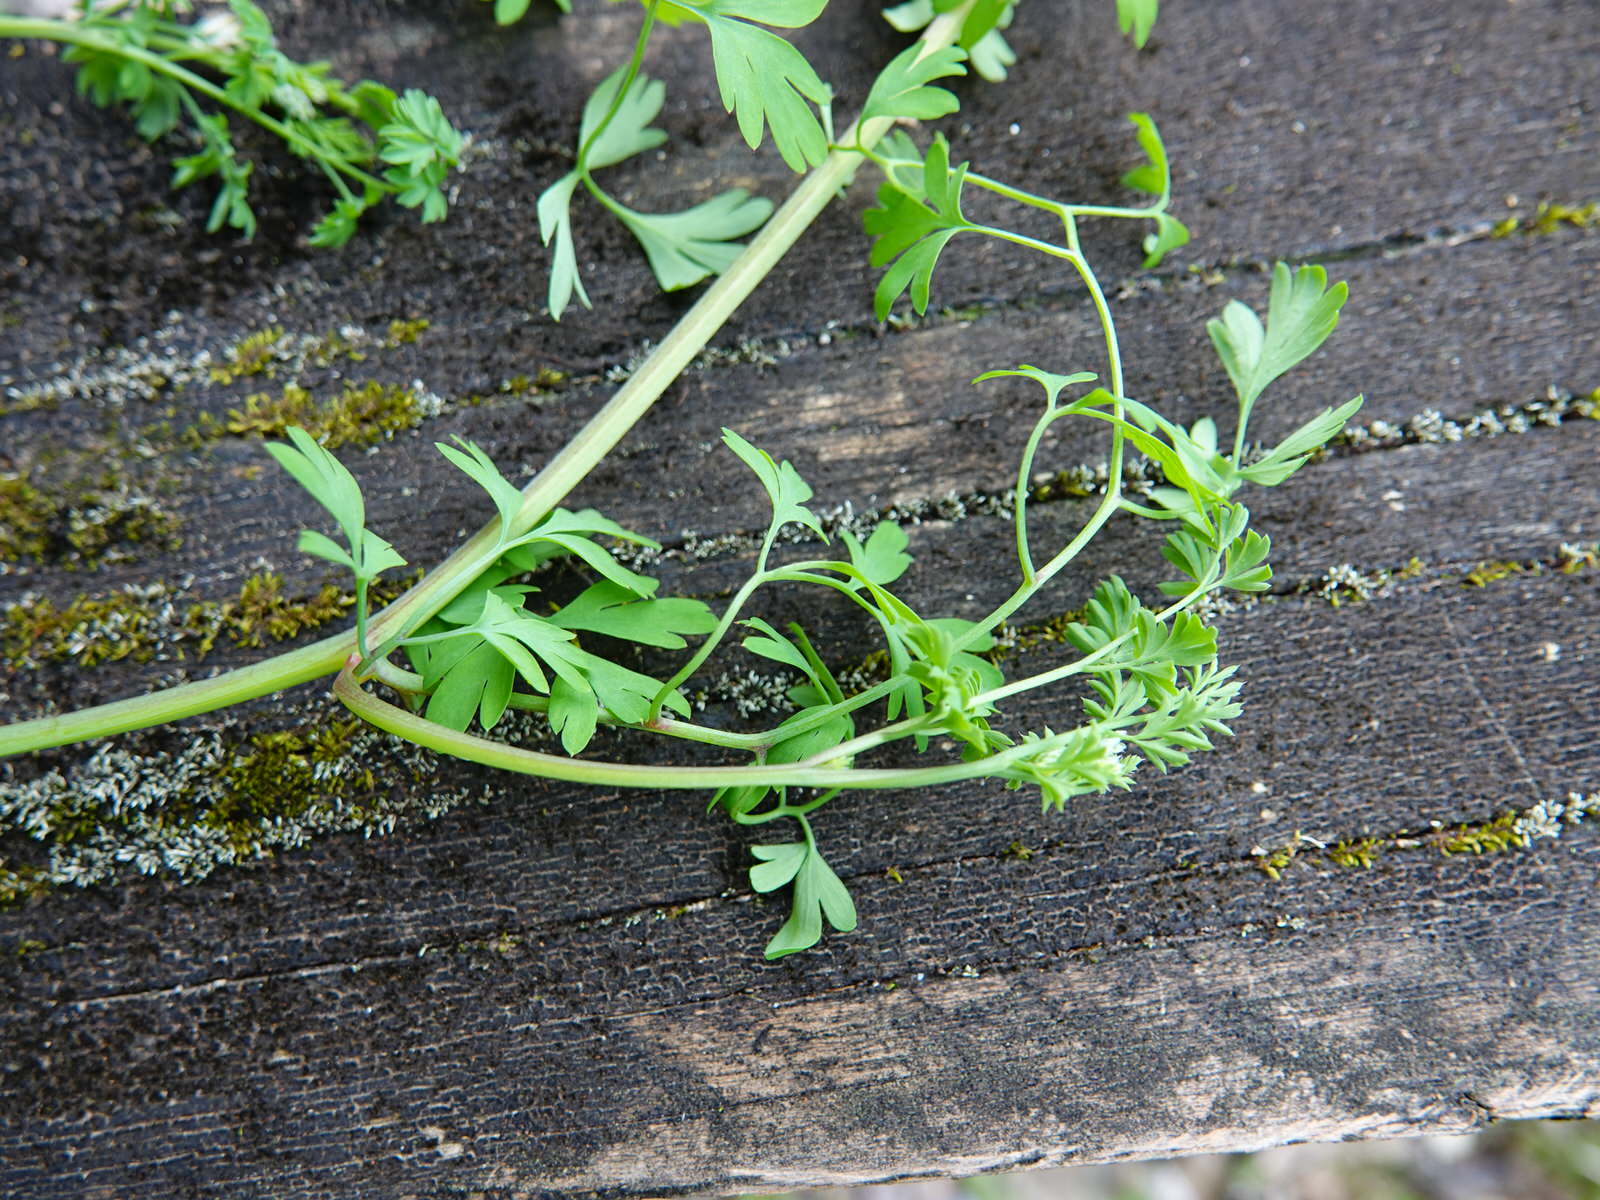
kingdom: Plantae
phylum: Tracheophyta
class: Magnoliopsida
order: Ranunculales
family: Papaveraceae
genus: Fumaria
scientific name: Fumaria muralis
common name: Common ramping-fumitory
